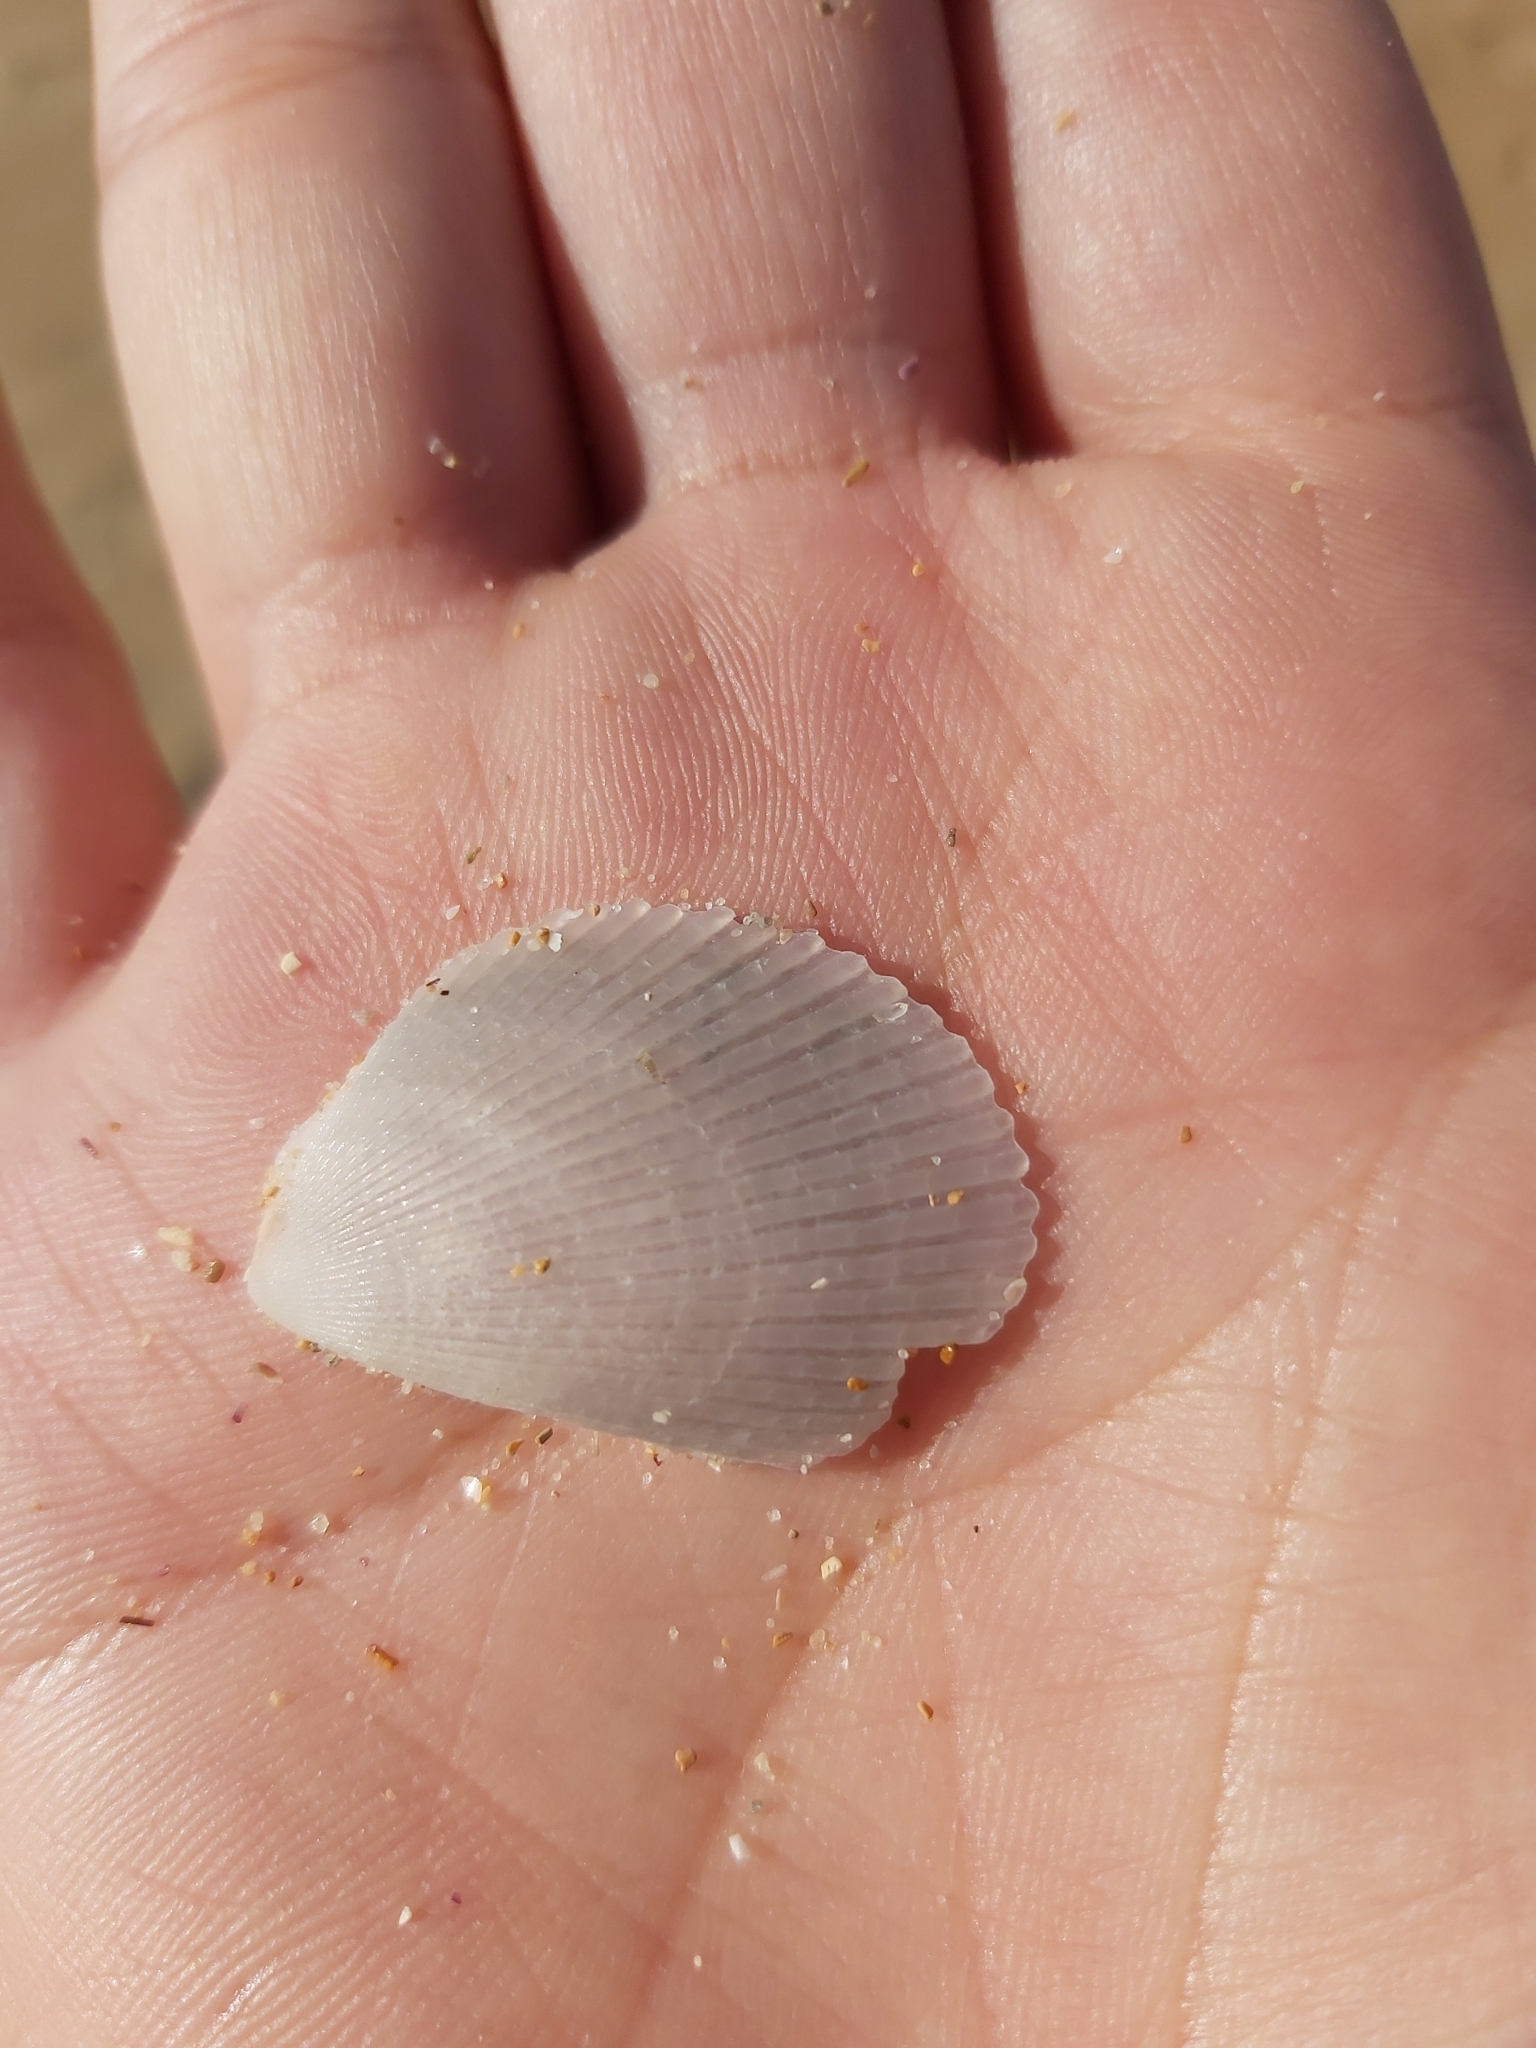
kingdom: Animalia
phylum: Mollusca
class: Bivalvia
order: Limida
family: Limidae
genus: Lima
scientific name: Lima nimbifer
